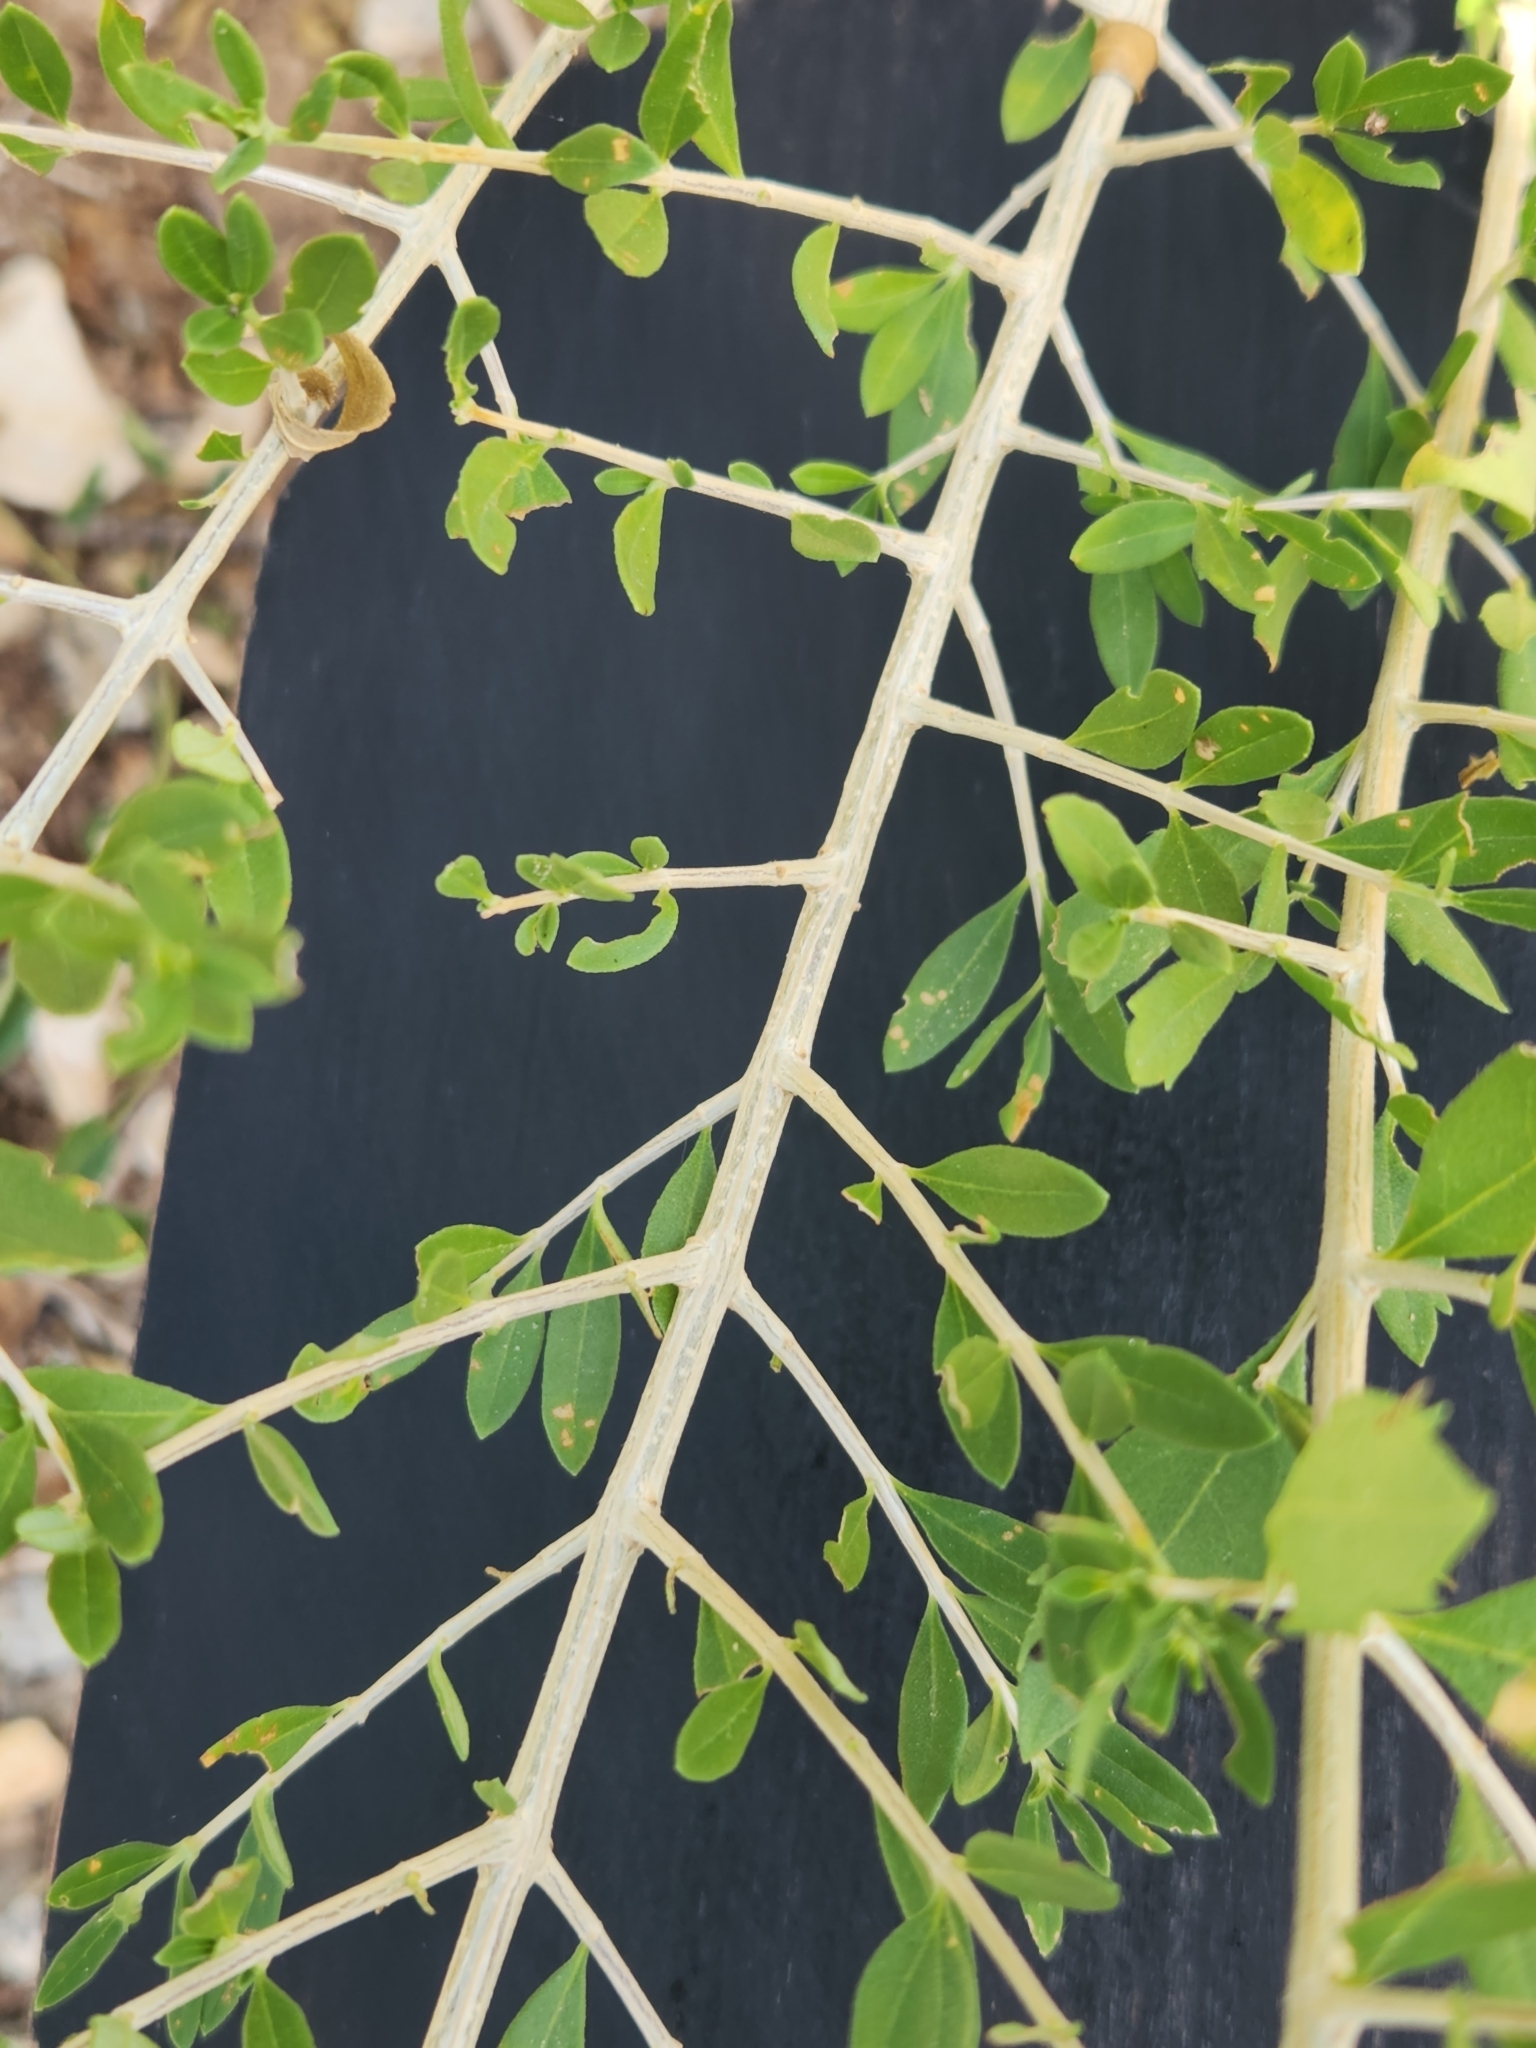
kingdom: Plantae
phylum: Tracheophyta
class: Magnoliopsida
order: Lamiales
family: Verbenaceae
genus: Aloysia
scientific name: Aloysia gratissima
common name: Common bee-brush
